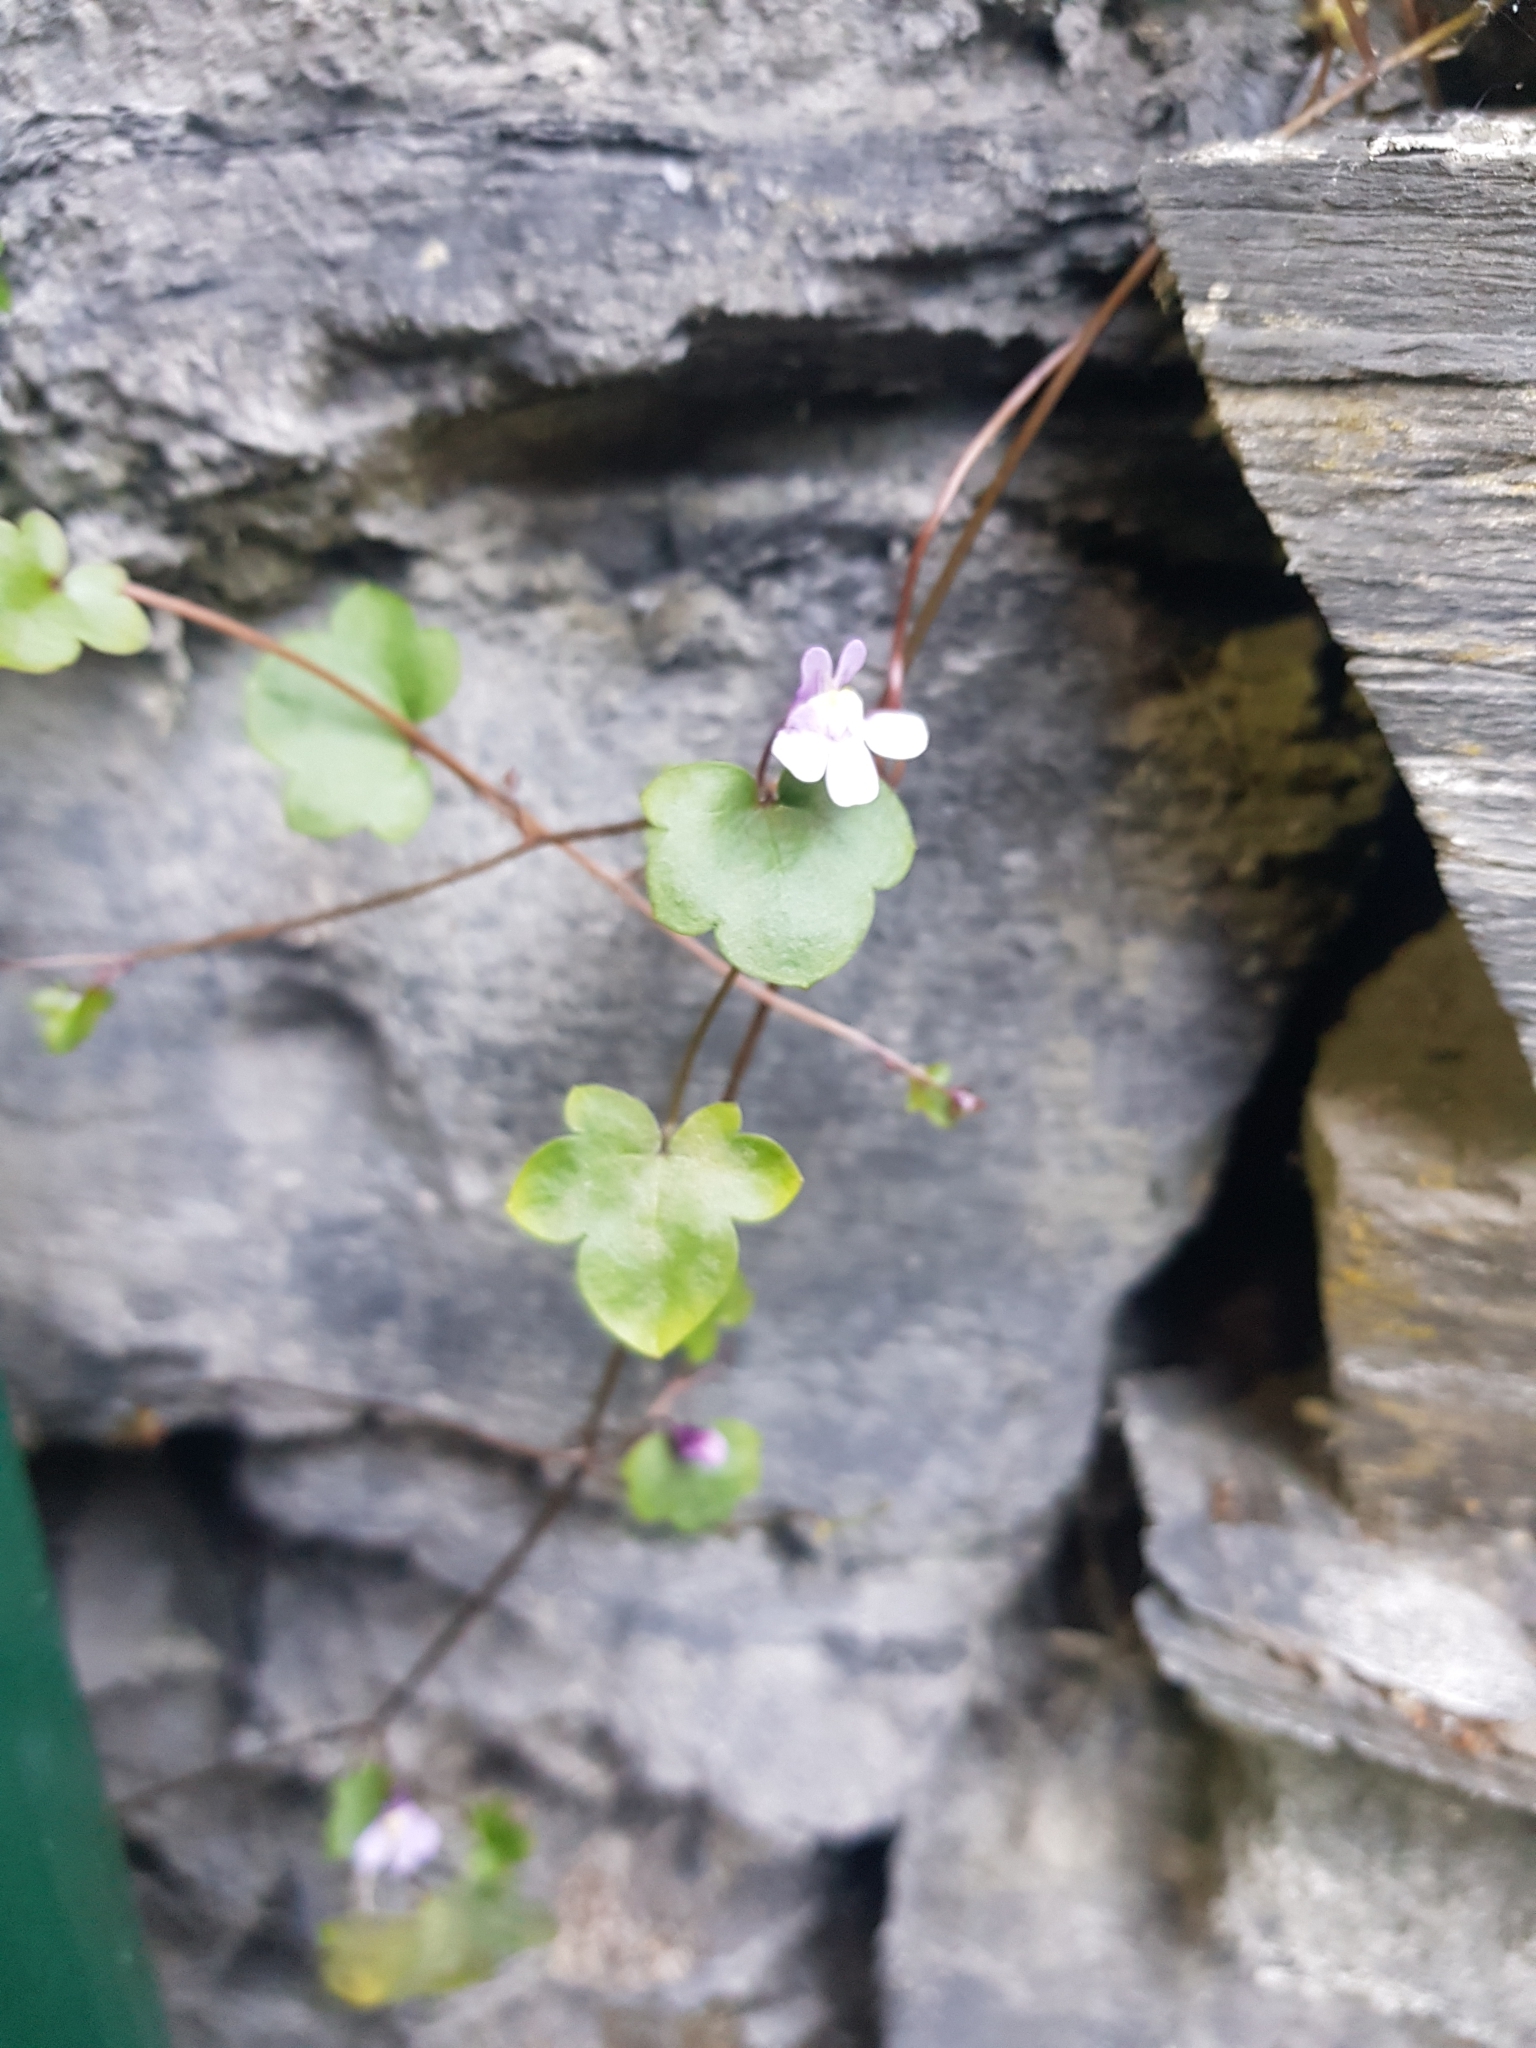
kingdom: Plantae
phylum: Tracheophyta
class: Magnoliopsida
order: Lamiales
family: Plantaginaceae
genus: Cymbalaria
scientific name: Cymbalaria muralis
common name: Ivy-leaved toadflax
